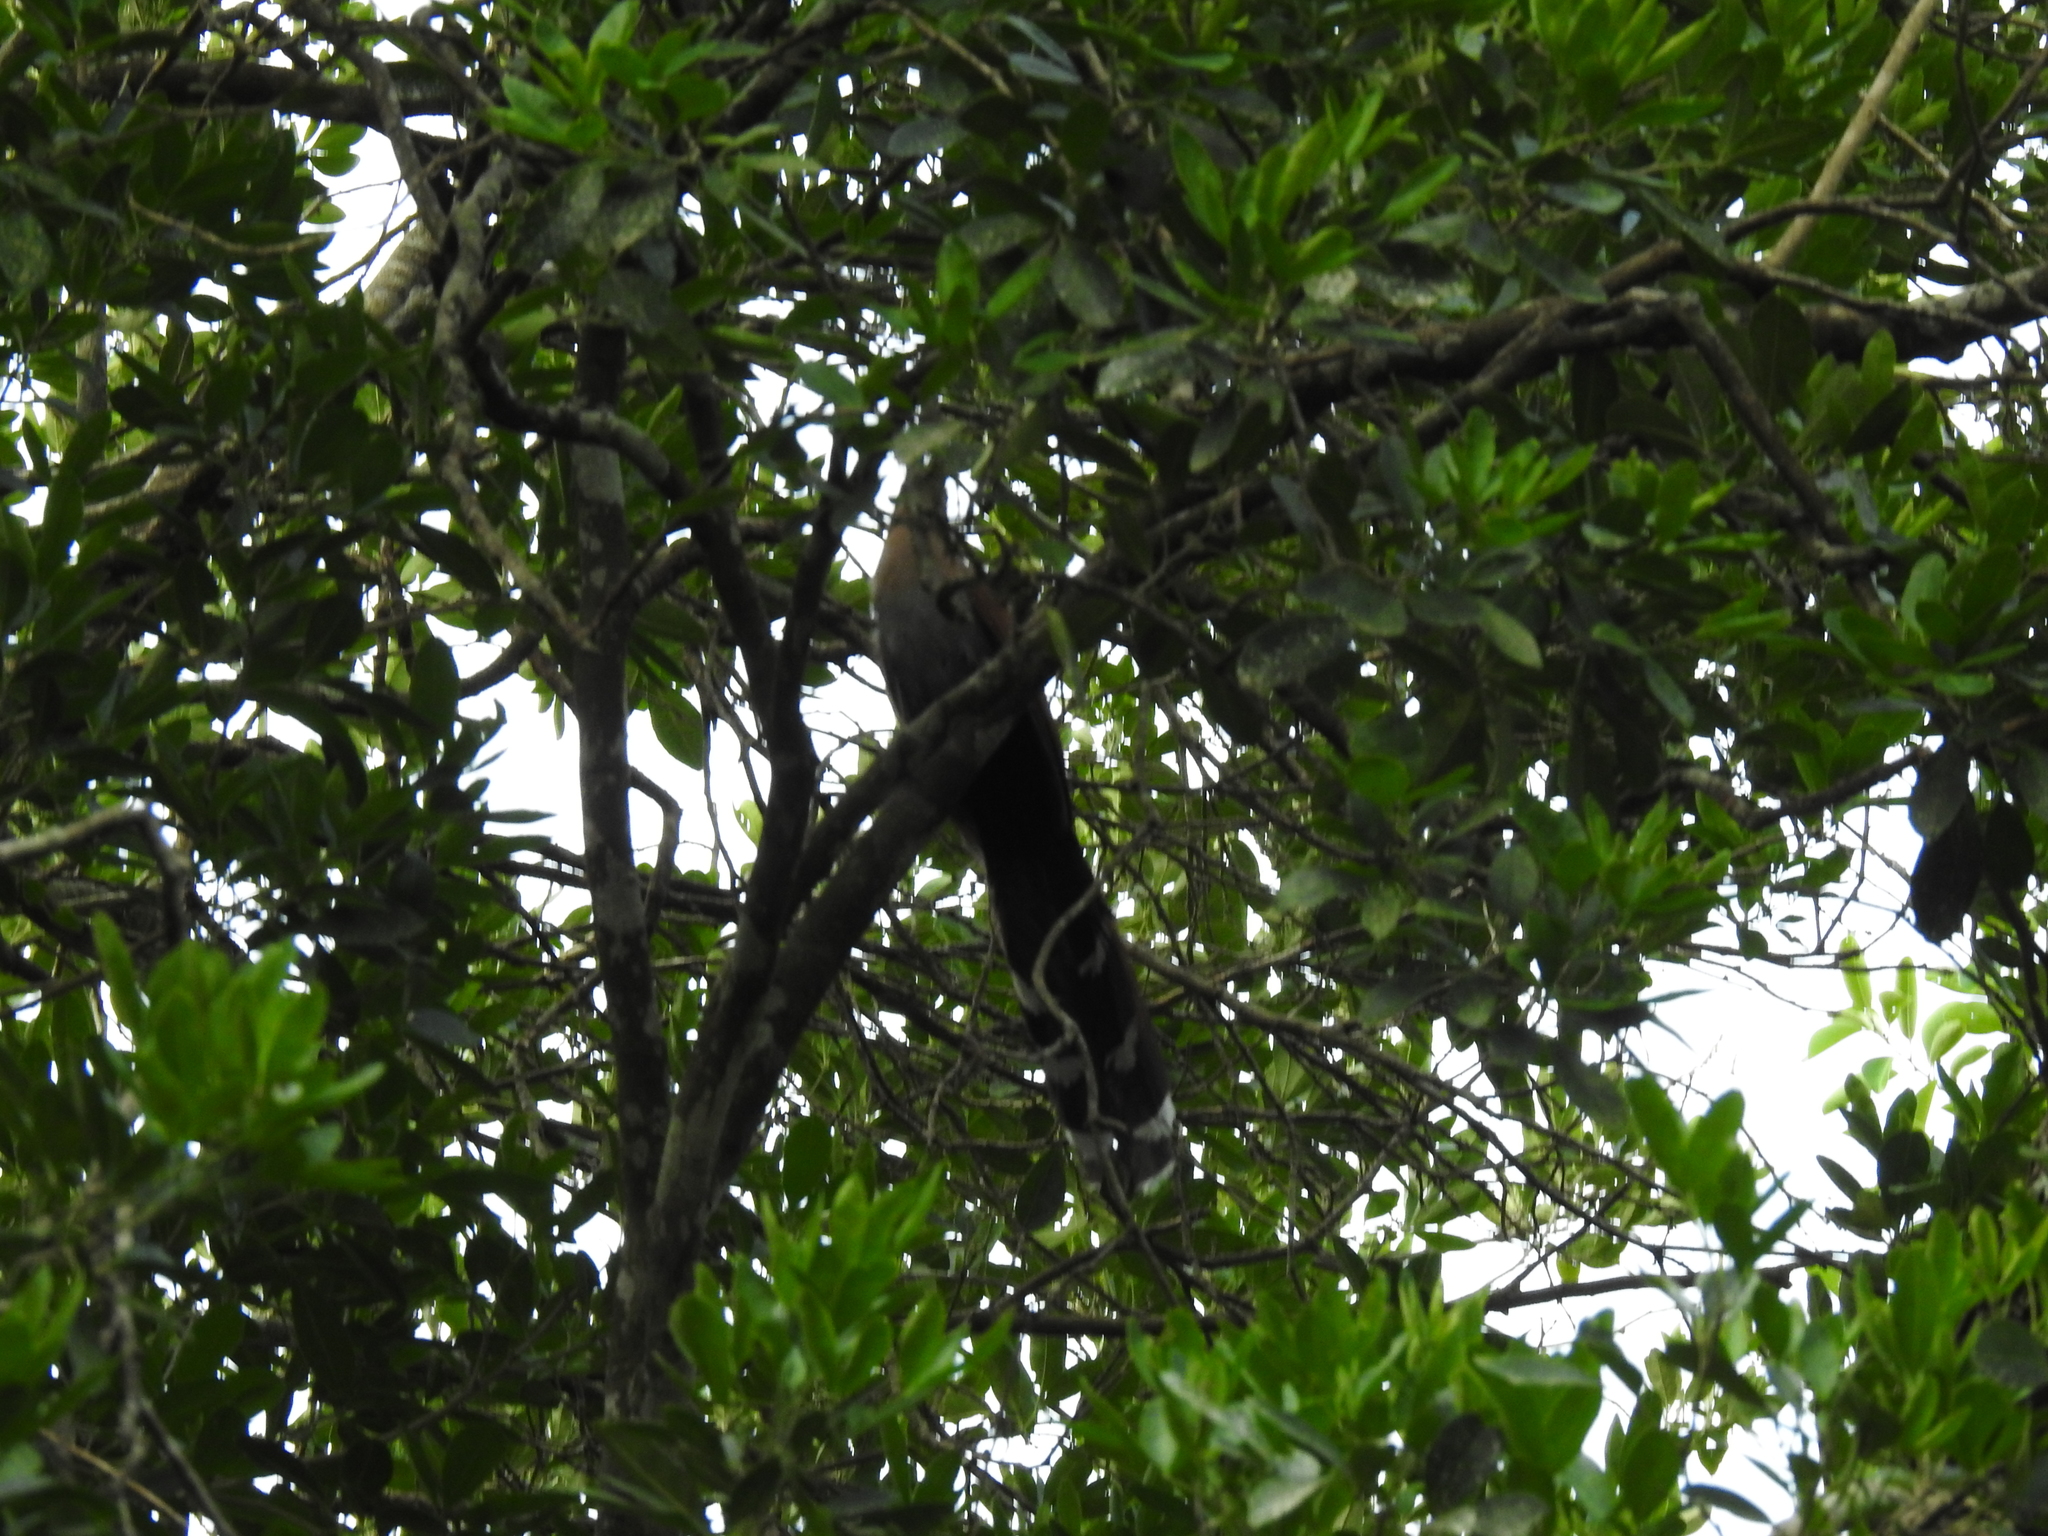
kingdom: Animalia
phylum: Chordata
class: Aves
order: Cuculiformes
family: Cuculidae
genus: Piaya
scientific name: Piaya cayana
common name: Squirrel cuckoo
